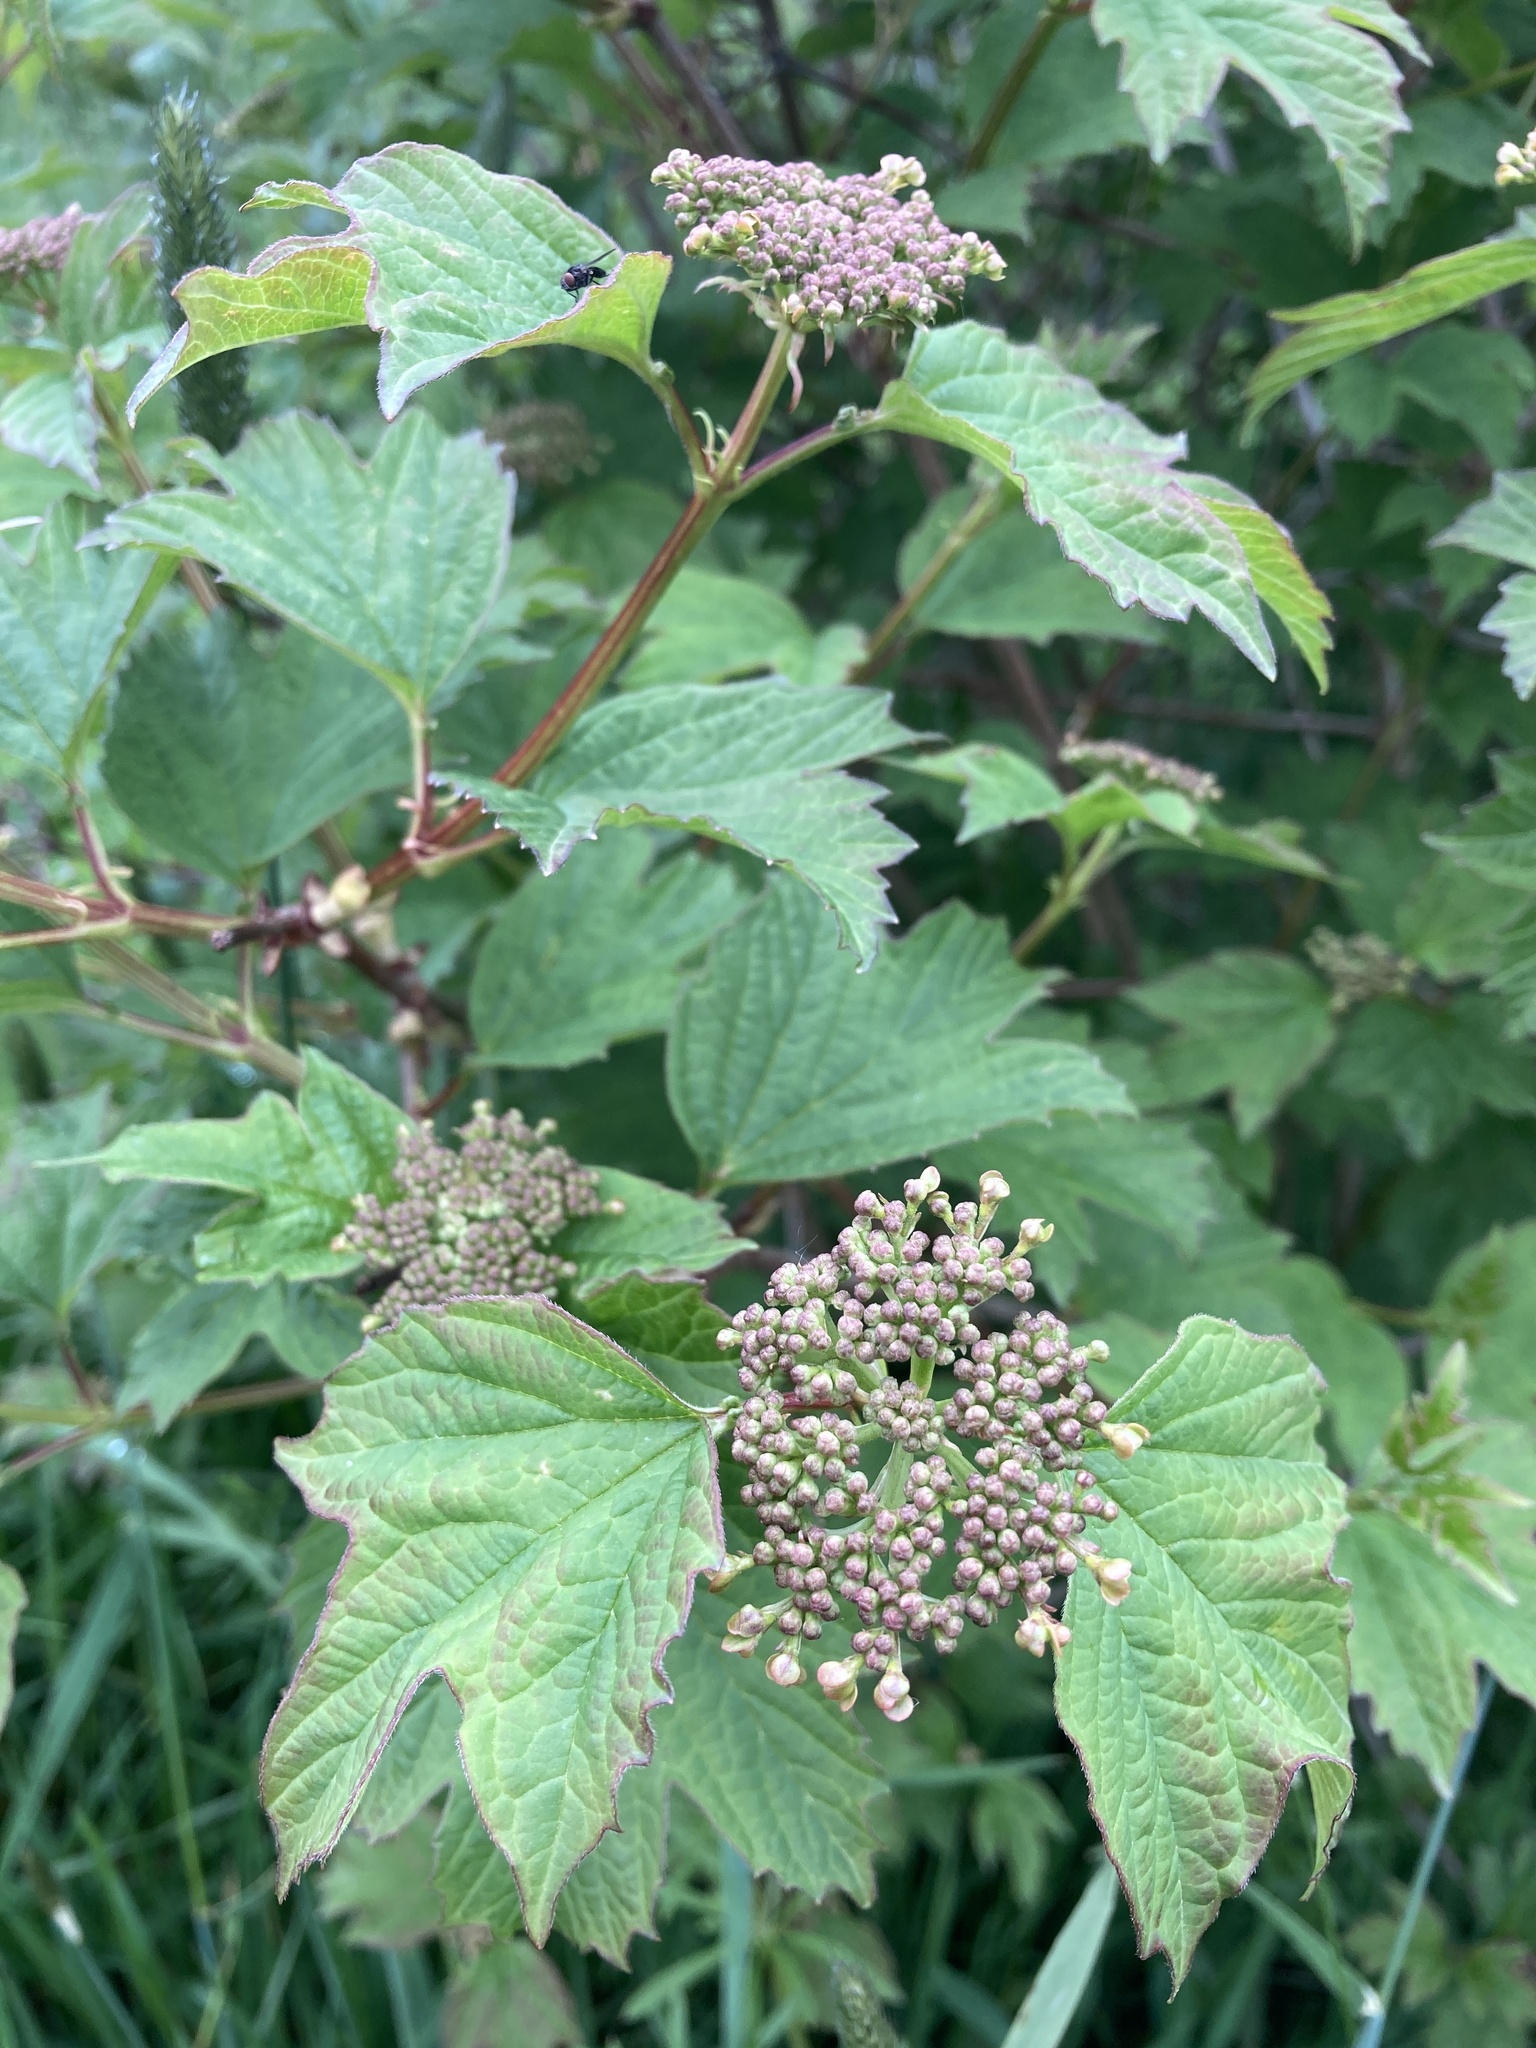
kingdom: Plantae
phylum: Tracheophyta
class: Magnoliopsida
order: Dipsacales
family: Viburnaceae
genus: Viburnum
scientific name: Viburnum opulus
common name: Guelder-rose
